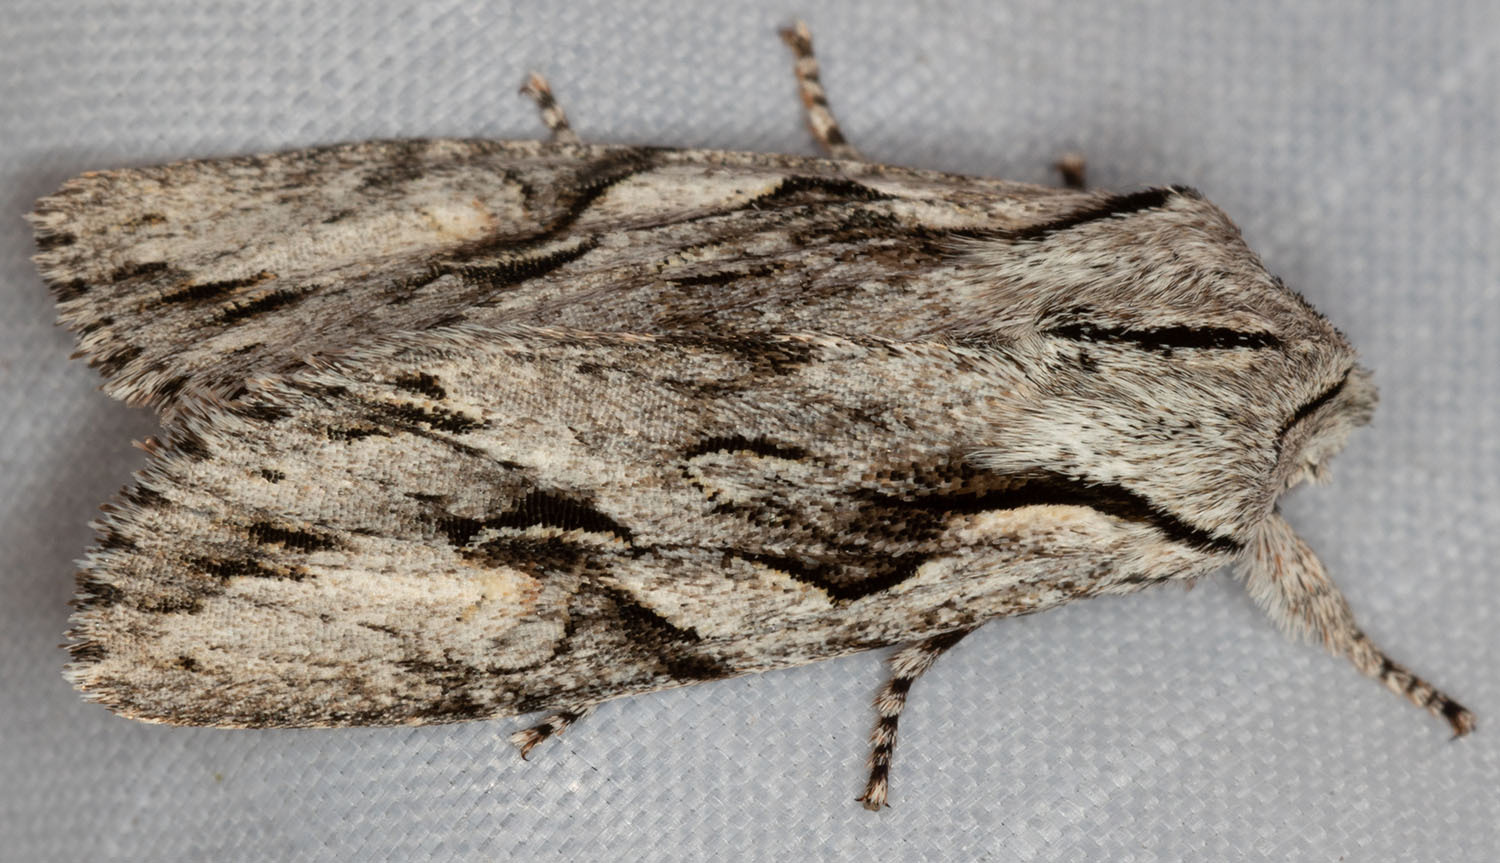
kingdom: Animalia
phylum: Arthropoda
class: Insecta
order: Lepidoptera
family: Noctuidae
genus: Egira
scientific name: Egira crucialis
